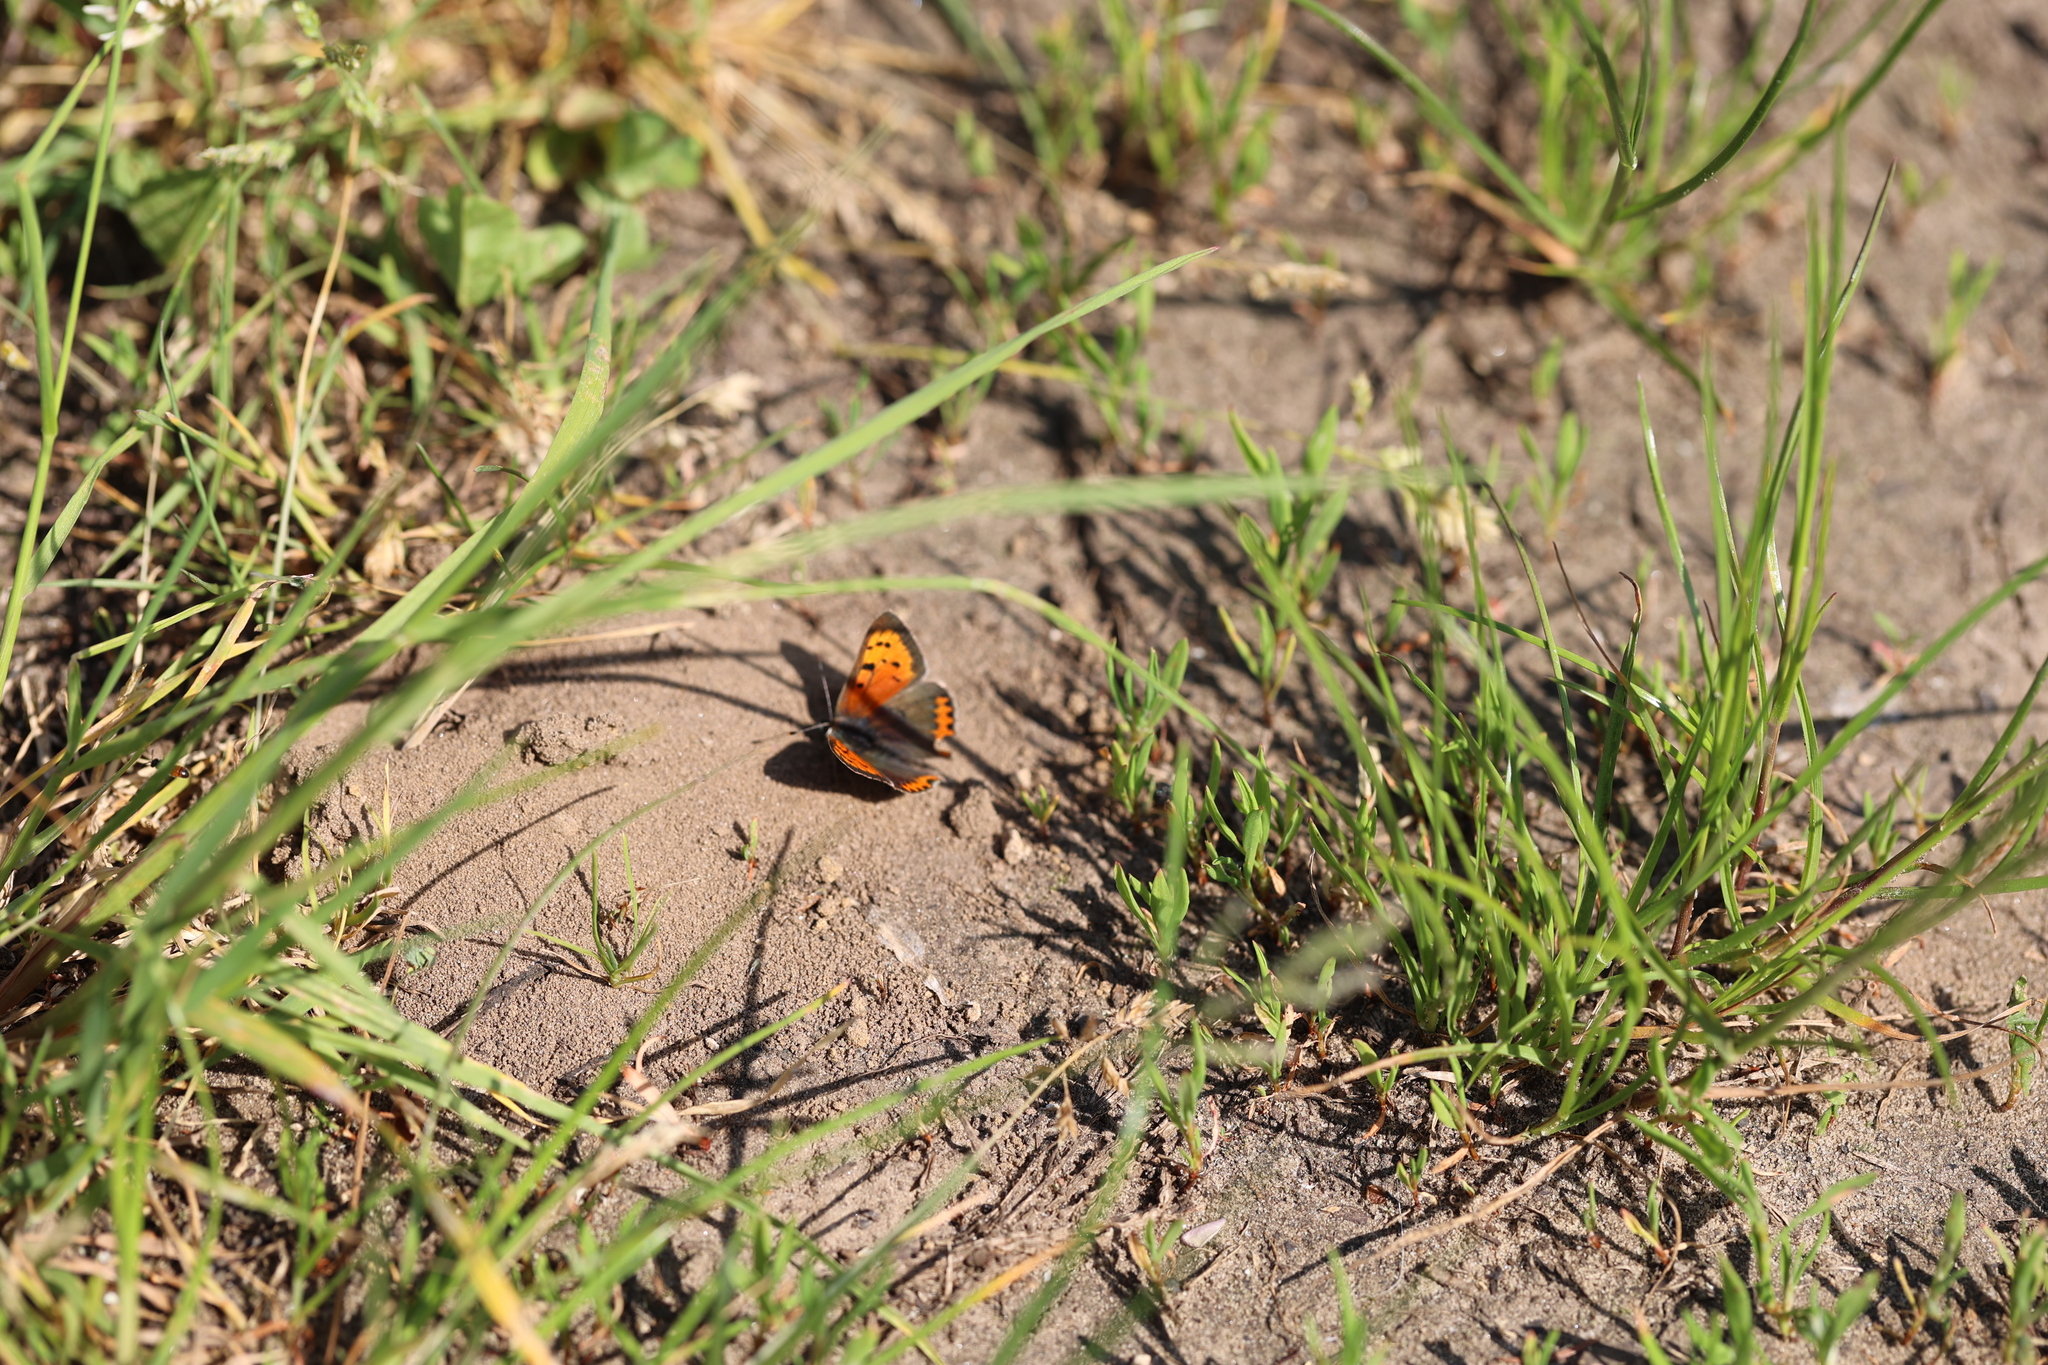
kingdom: Animalia
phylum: Arthropoda
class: Insecta
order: Lepidoptera
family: Lycaenidae
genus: Lycaena
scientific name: Lycaena phlaeas
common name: Small copper
